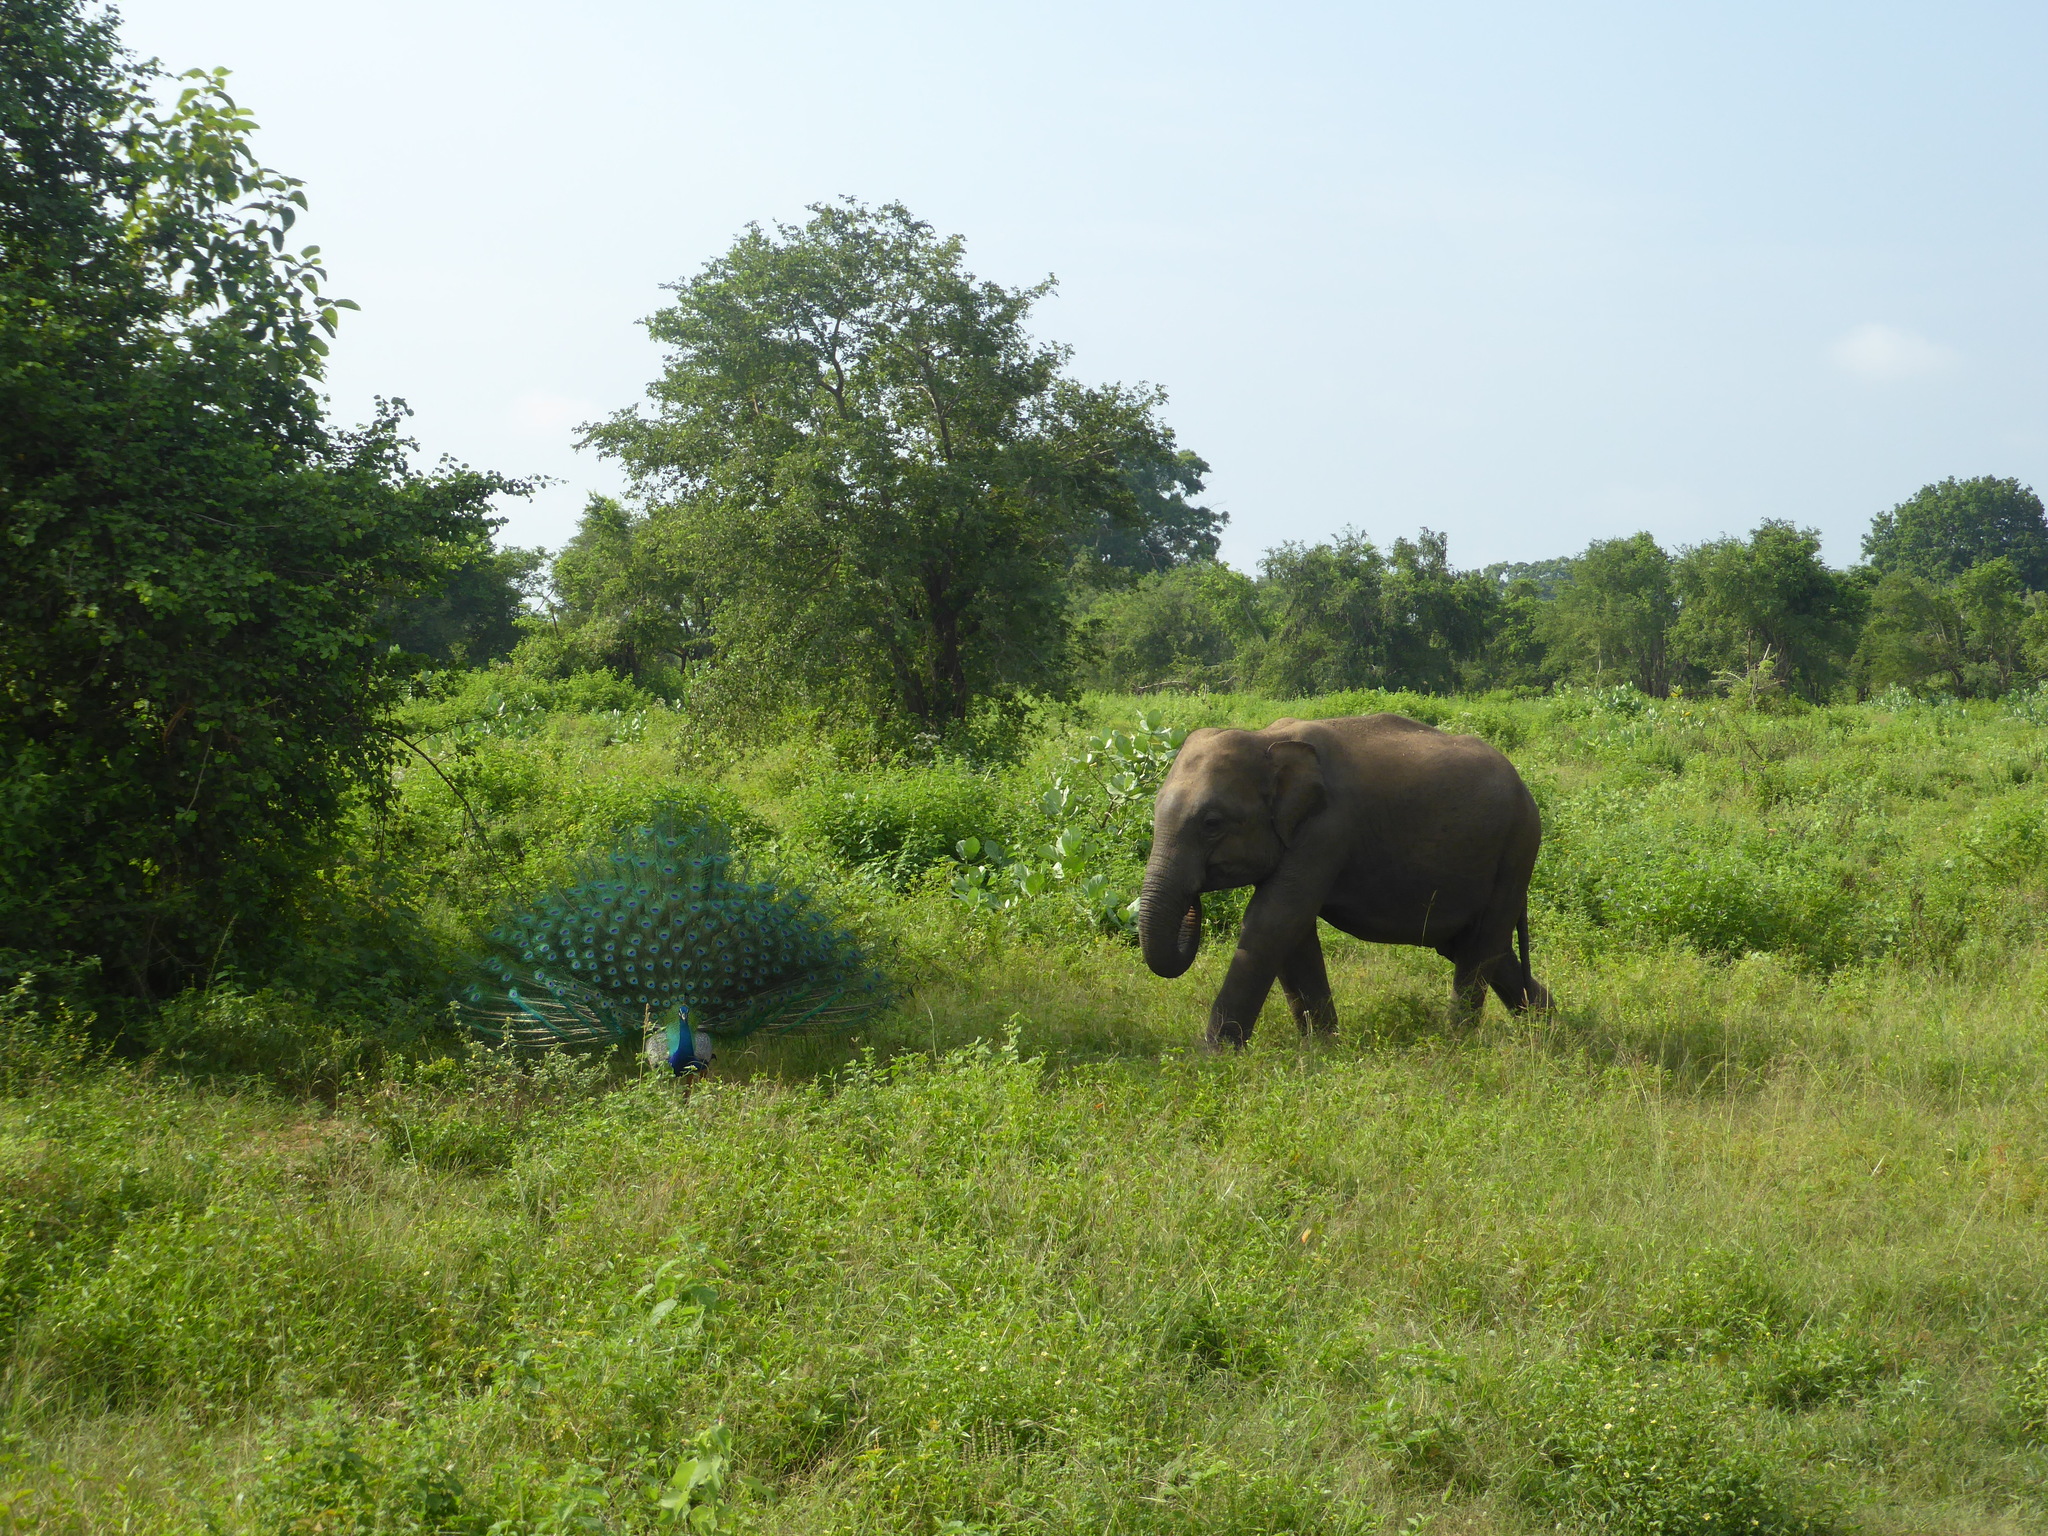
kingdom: Animalia
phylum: Chordata
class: Aves
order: Galliformes
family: Phasianidae
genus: Pavo
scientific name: Pavo cristatus
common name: Indian peafowl
